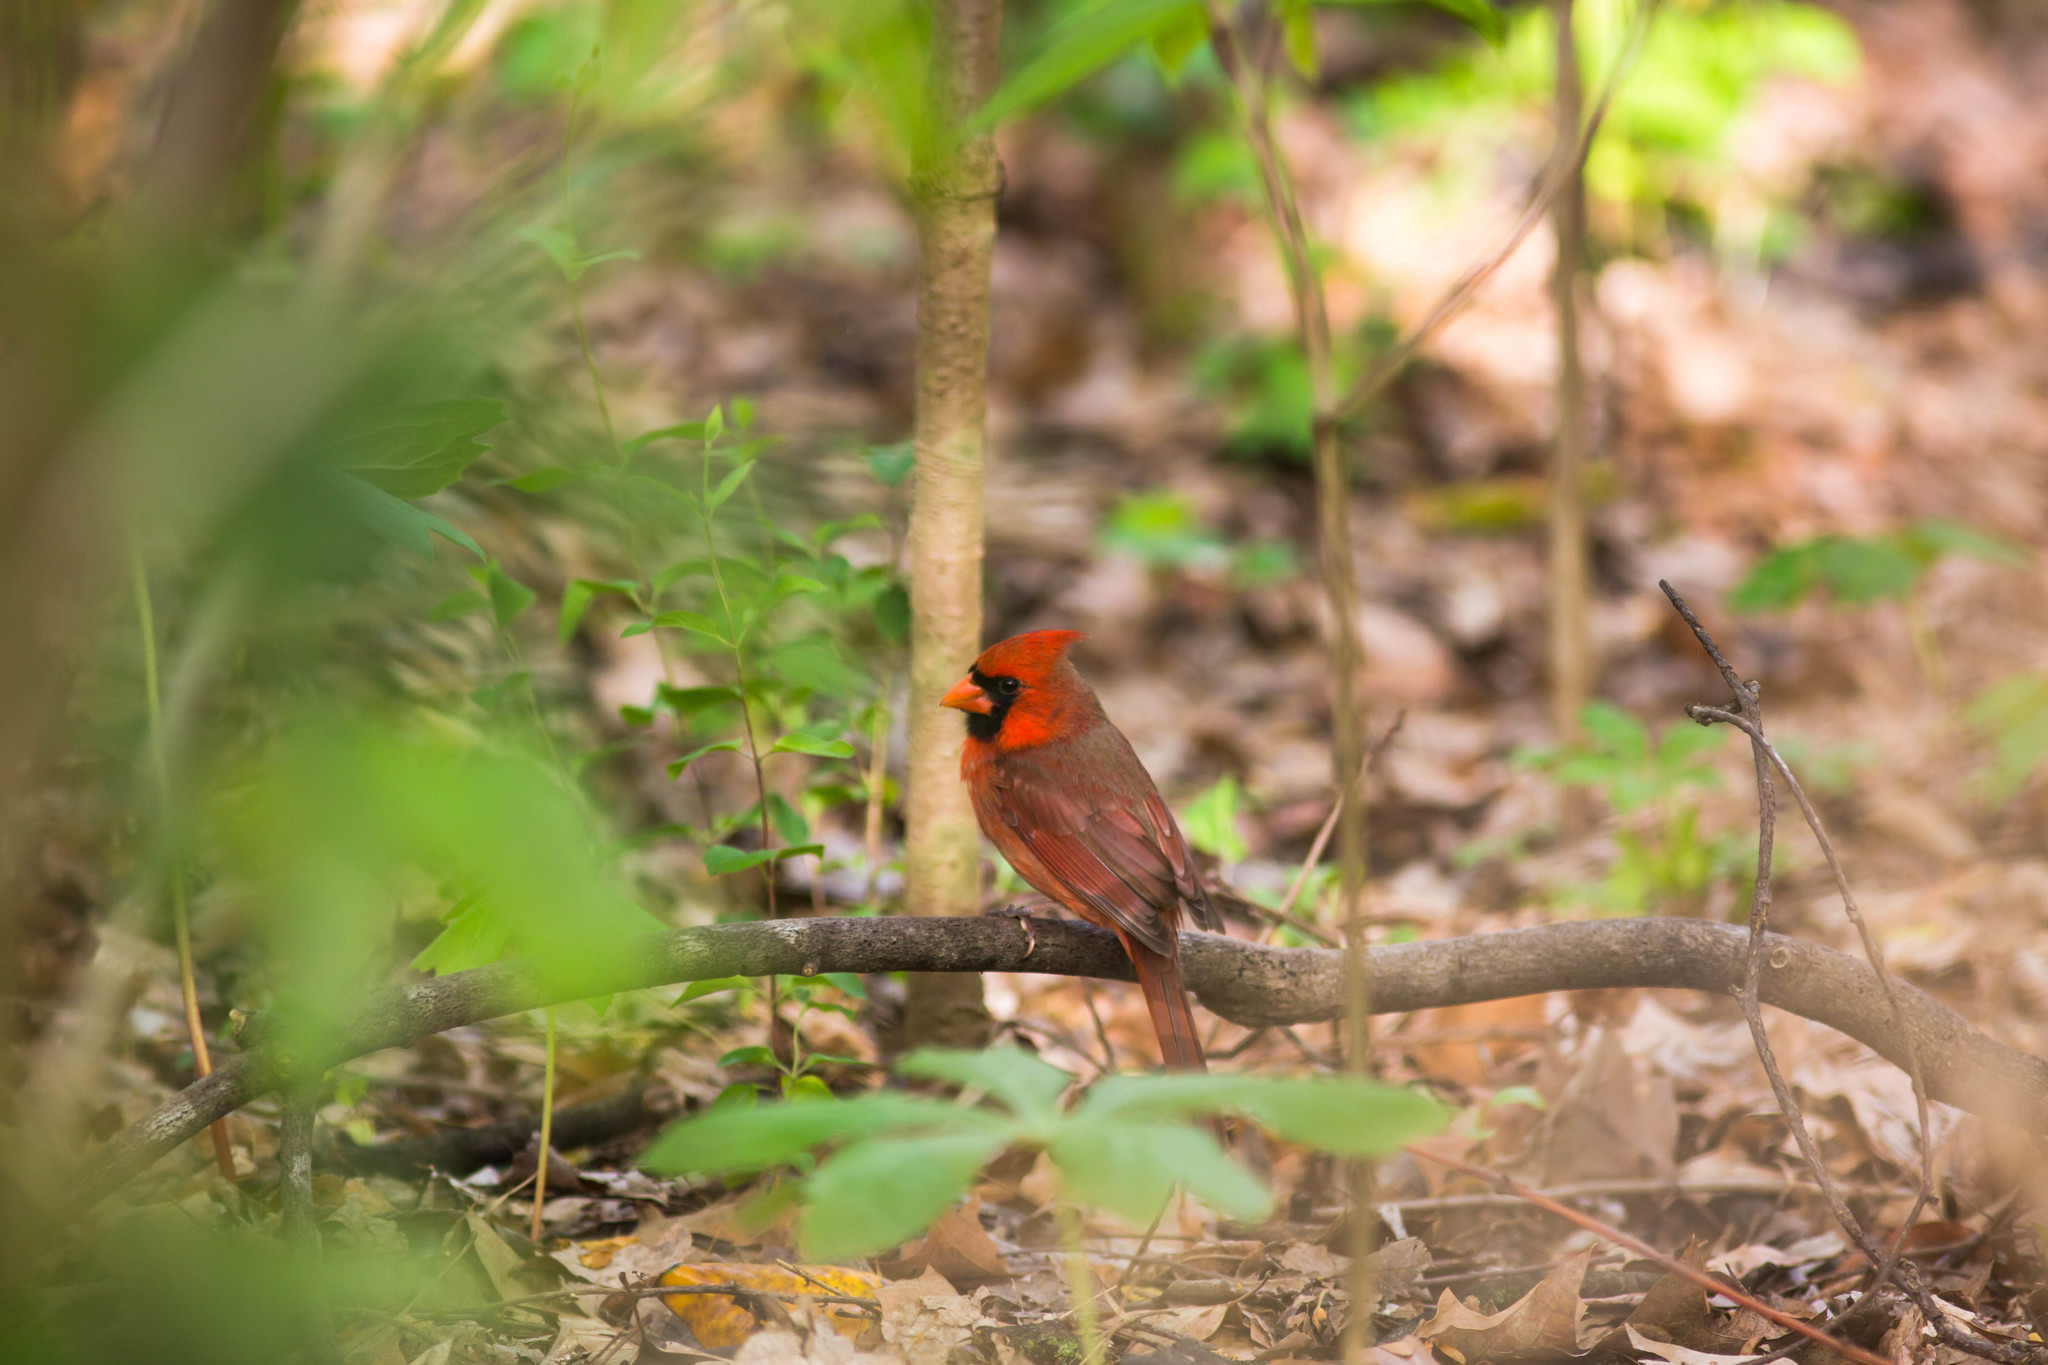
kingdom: Animalia
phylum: Chordata
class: Aves
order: Passeriformes
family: Cardinalidae
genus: Cardinalis
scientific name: Cardinalis cardinalis
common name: Northern cardinal
